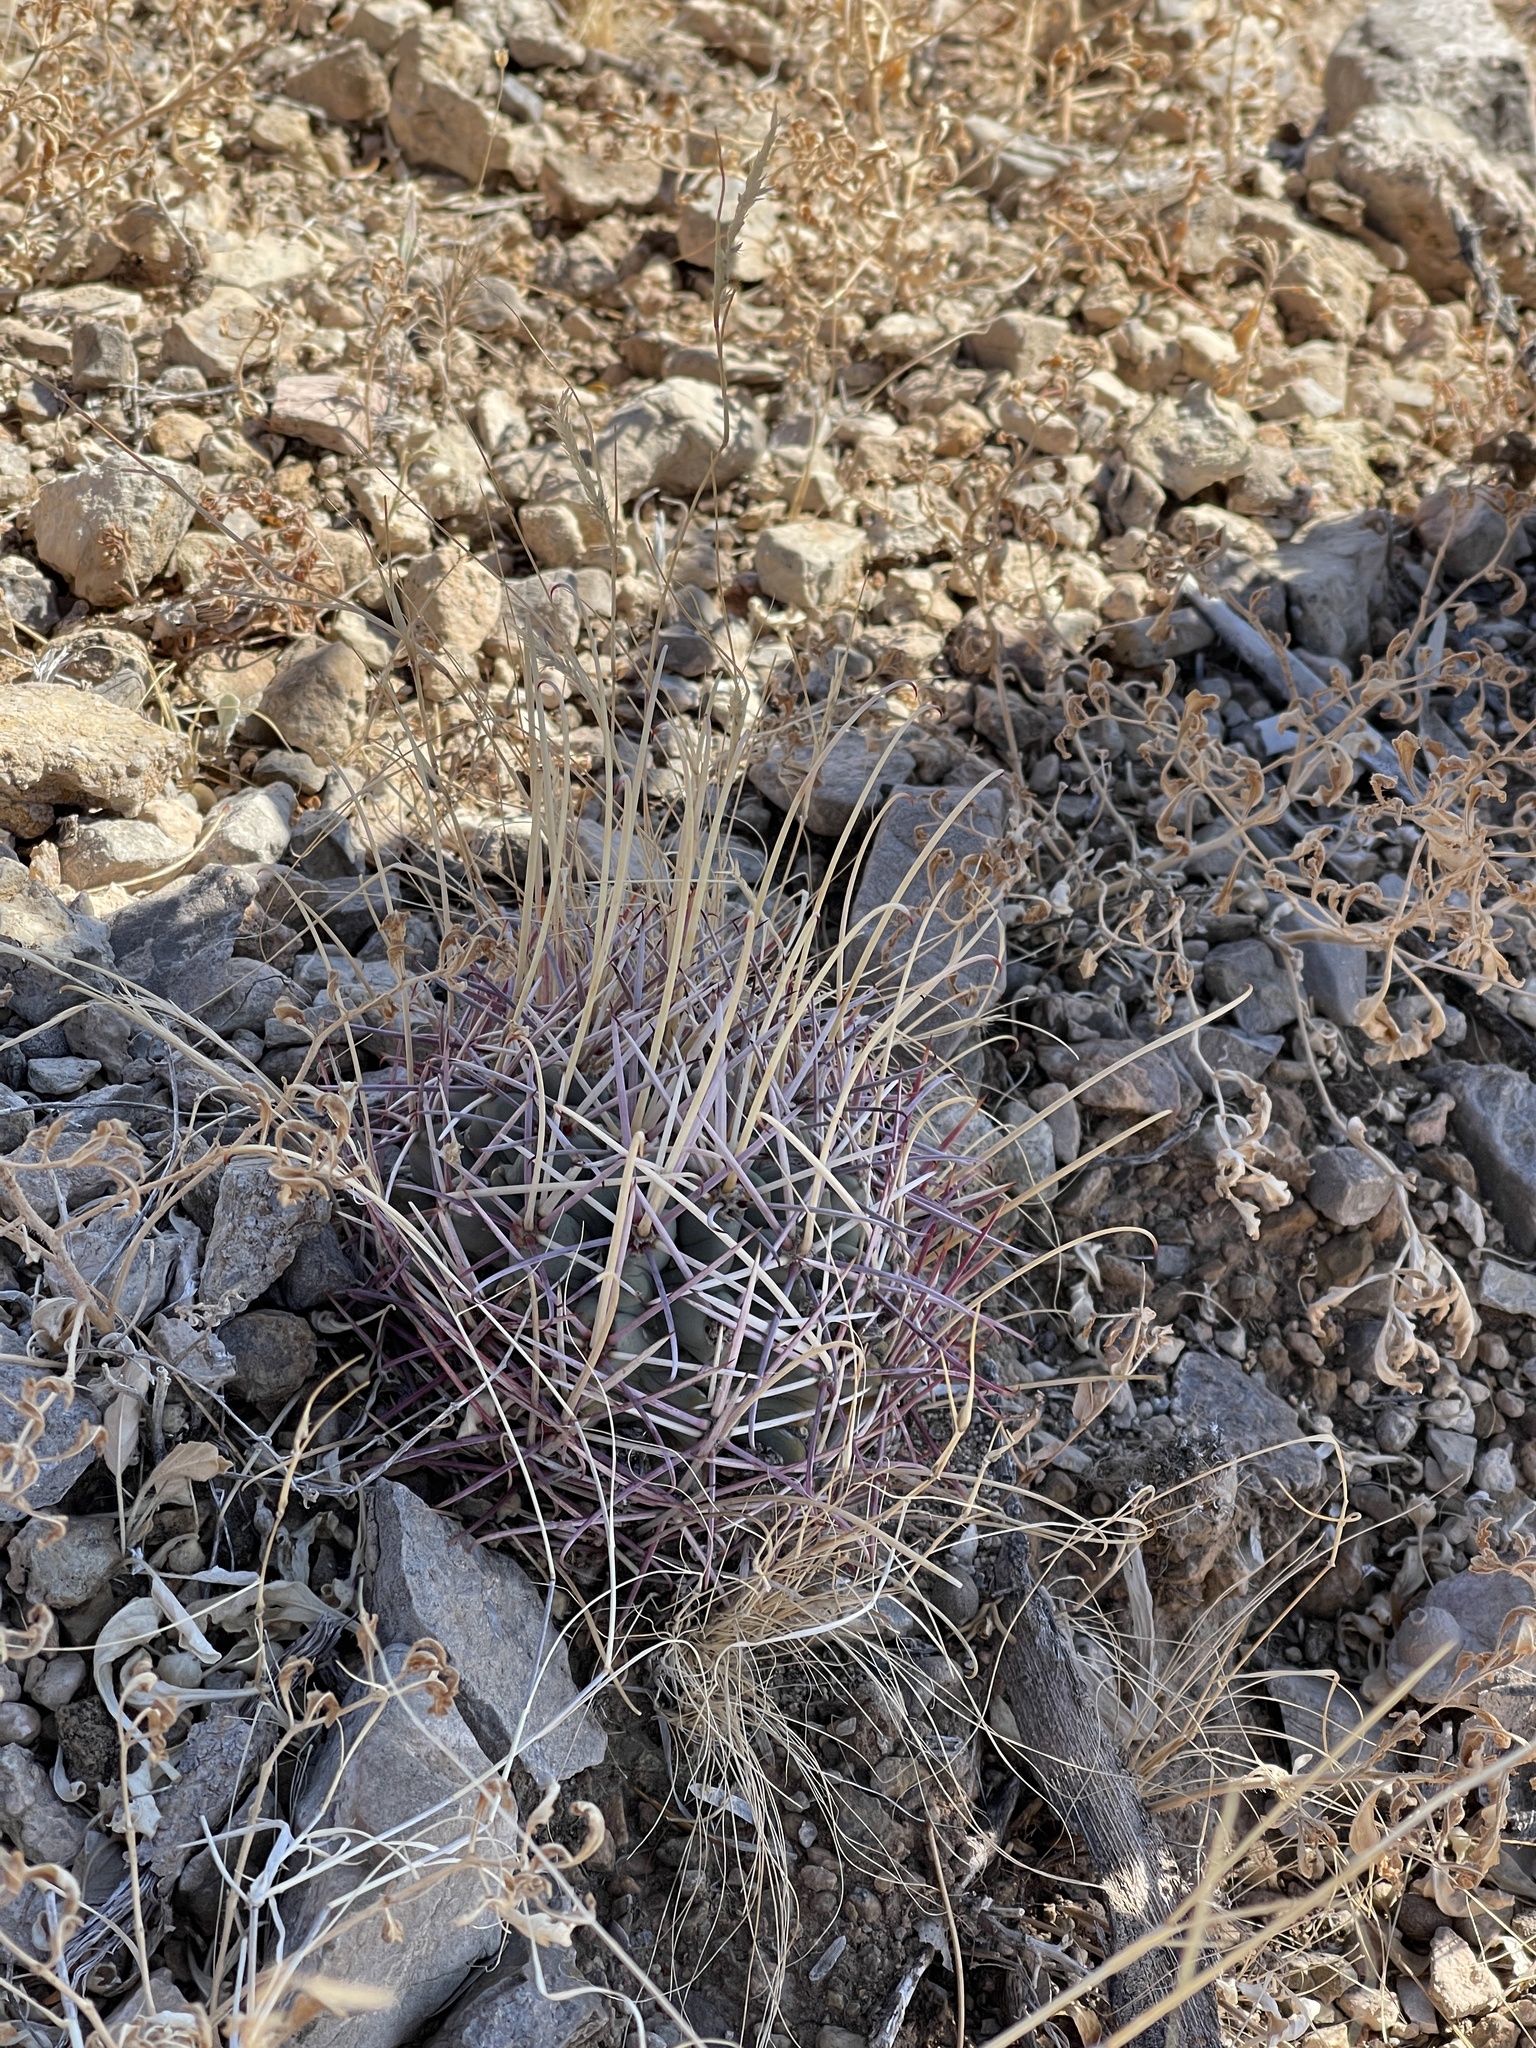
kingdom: Plantae
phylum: Tracheophyta
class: Magnoliopsida
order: Caryophyllales
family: Cactaceae
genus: Ferocactus
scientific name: Ferocactus uncinatus
